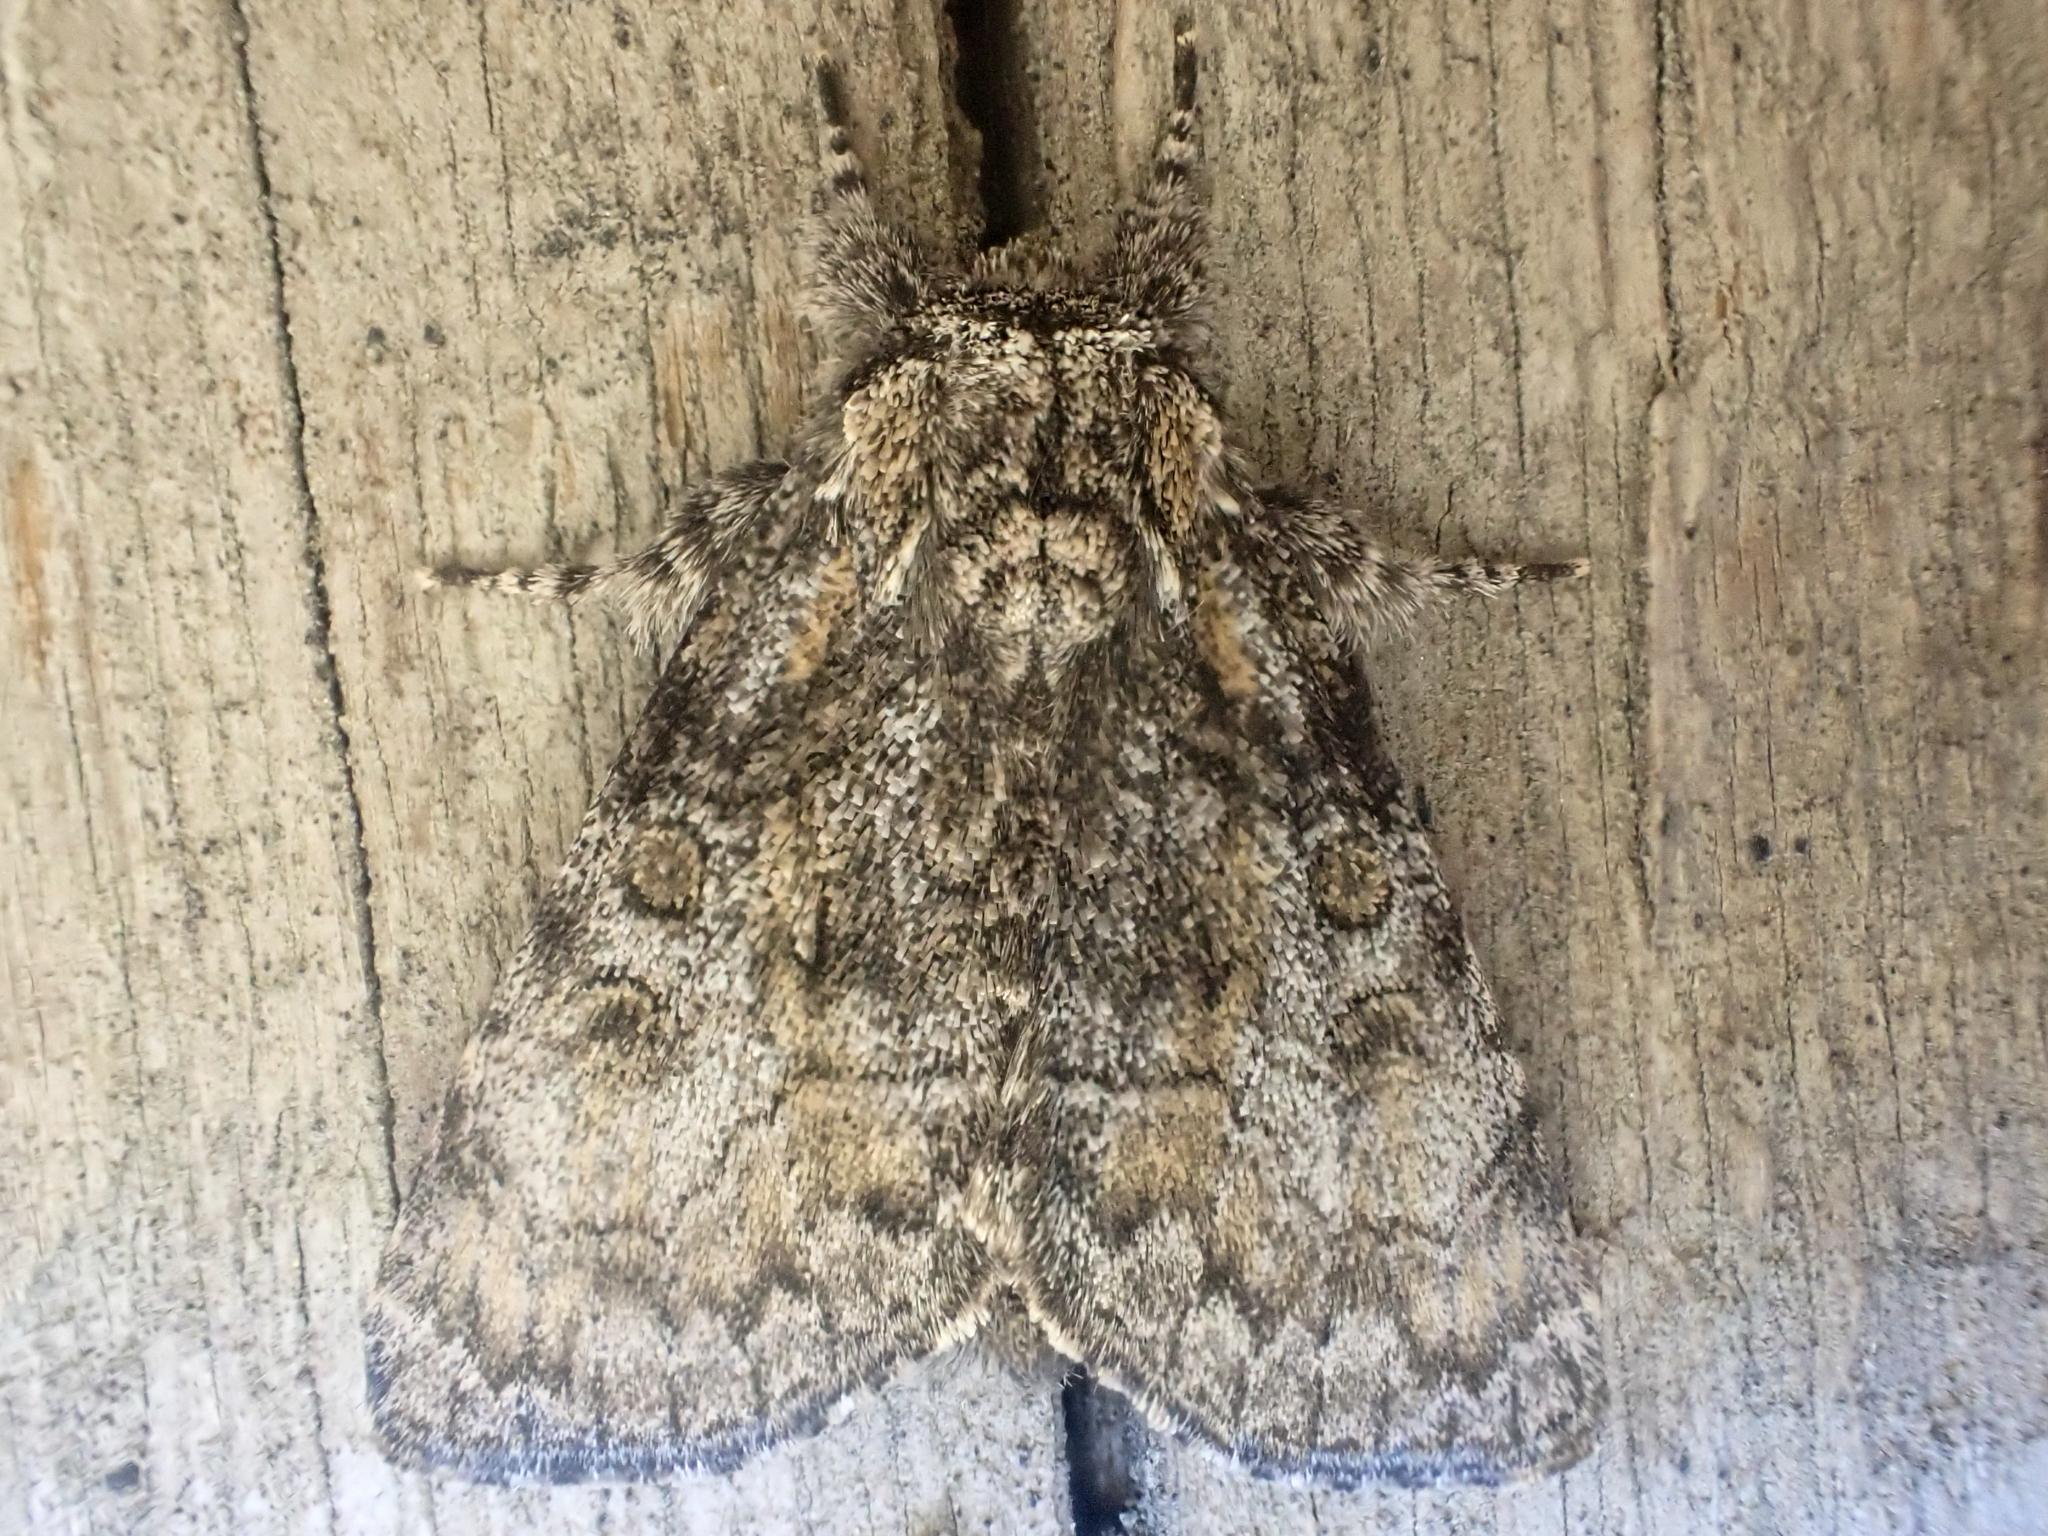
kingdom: Animalia
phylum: Arthropoda
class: Insecta
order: Lepidoptera
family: Noctuidae
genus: Raphia
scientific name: Raphia frater
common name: Brother
